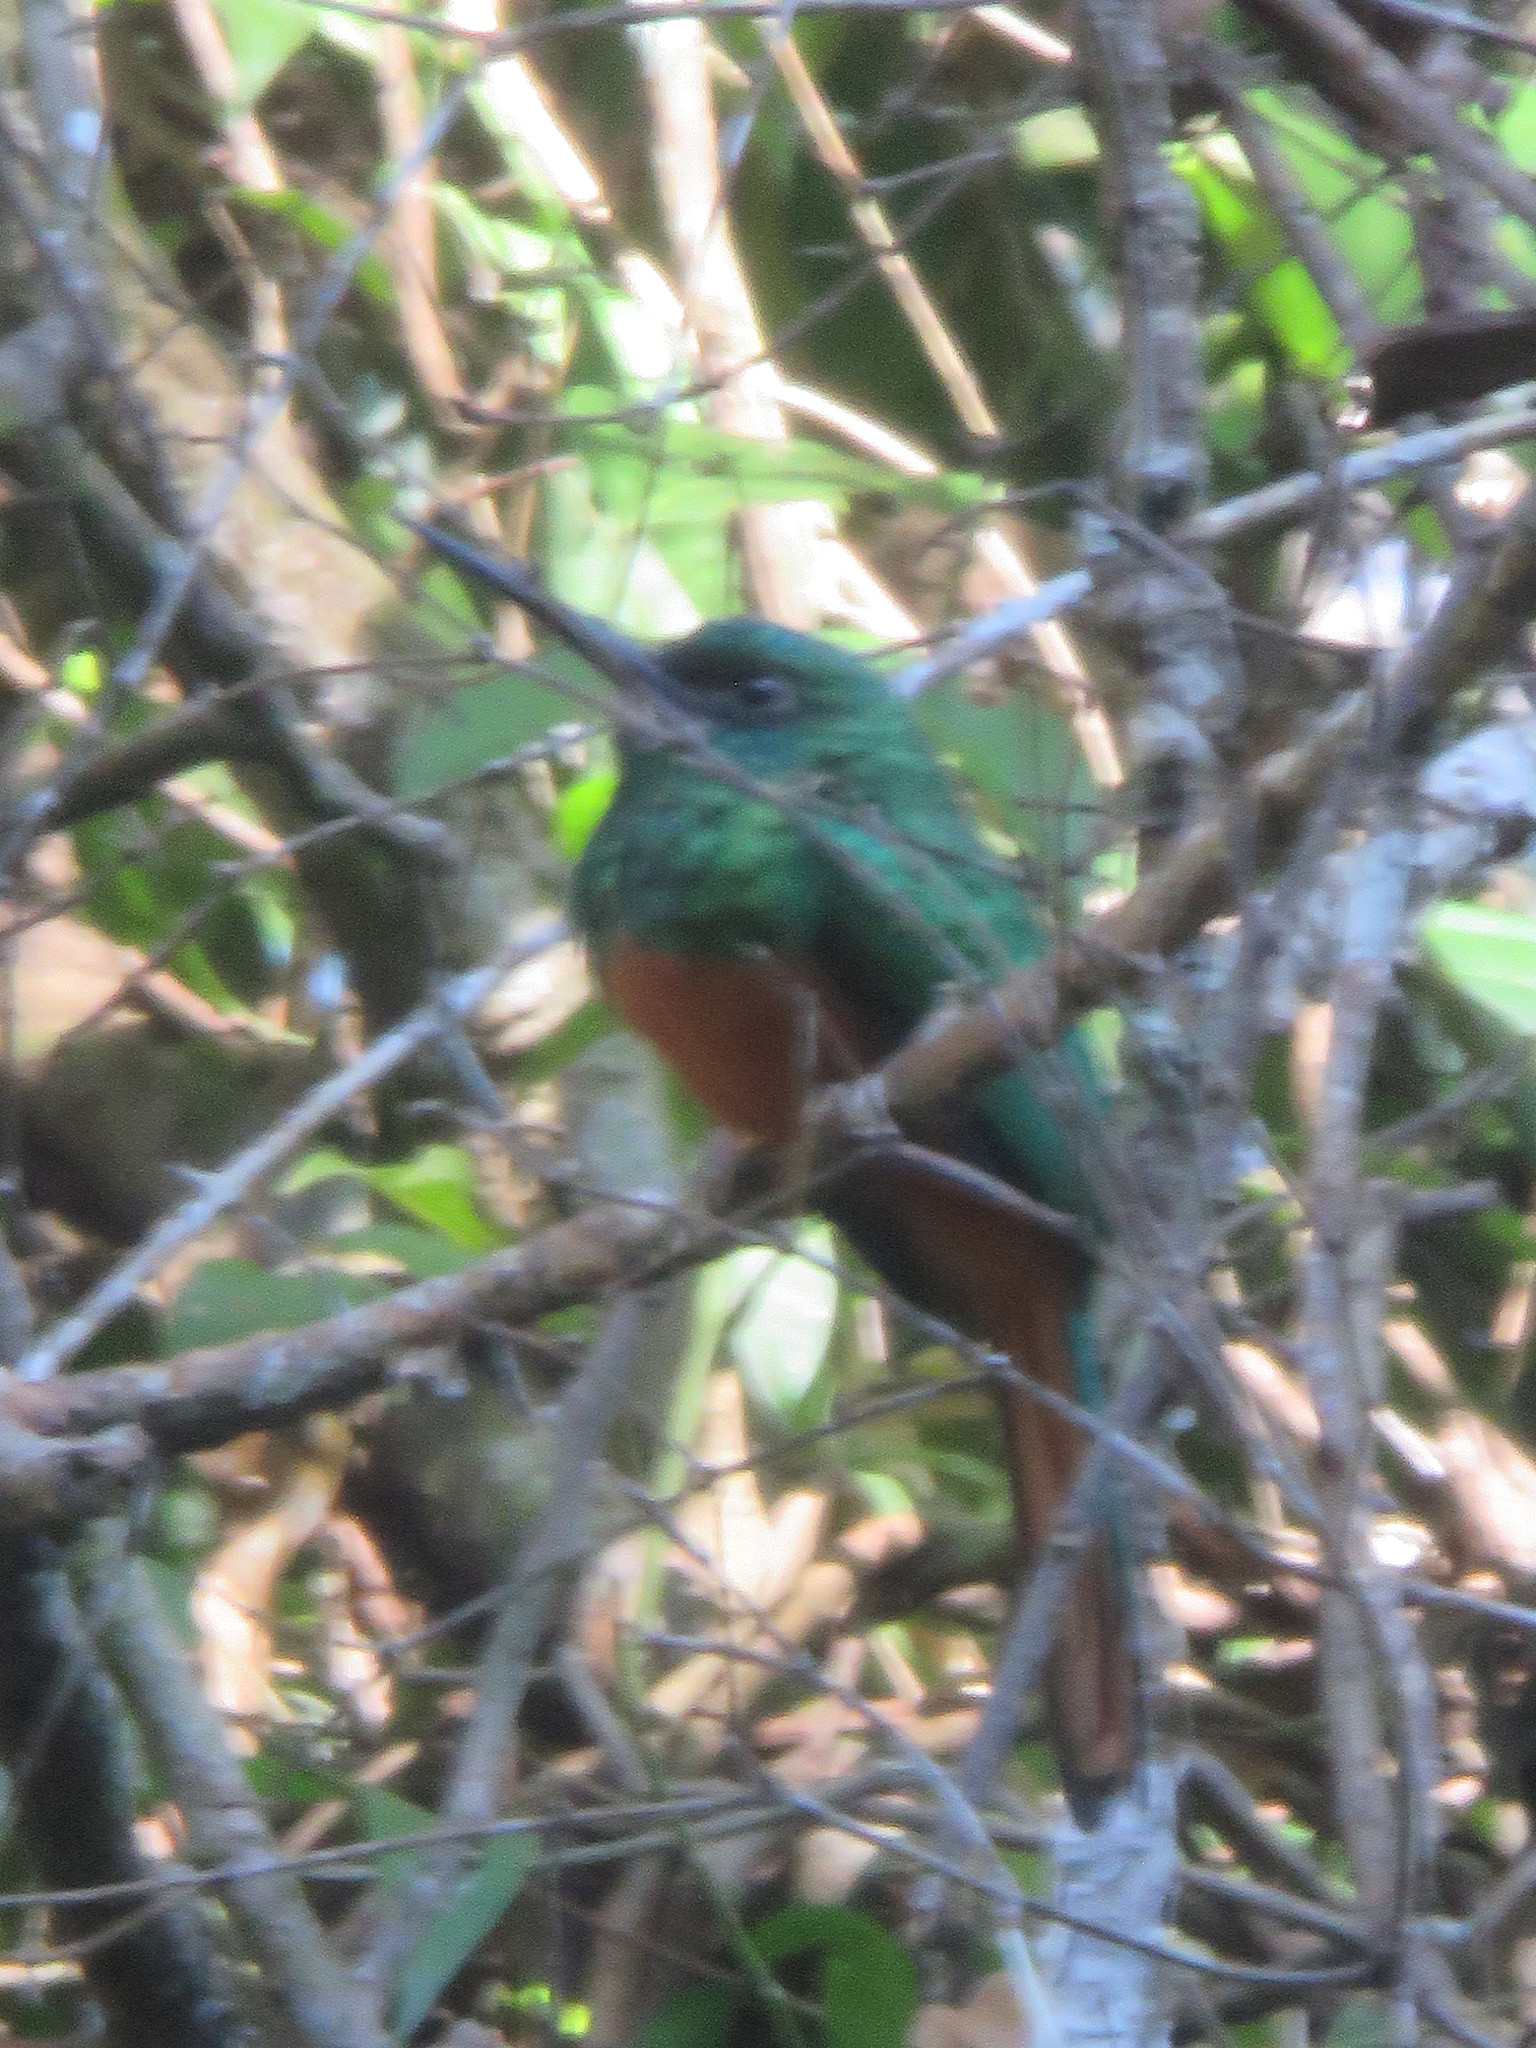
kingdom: Animalia
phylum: Chordata
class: Aves
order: Piciformes
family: Galbulidae
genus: Galbula
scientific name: Galbula cyanescens
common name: Bluish-fronted jacamar
